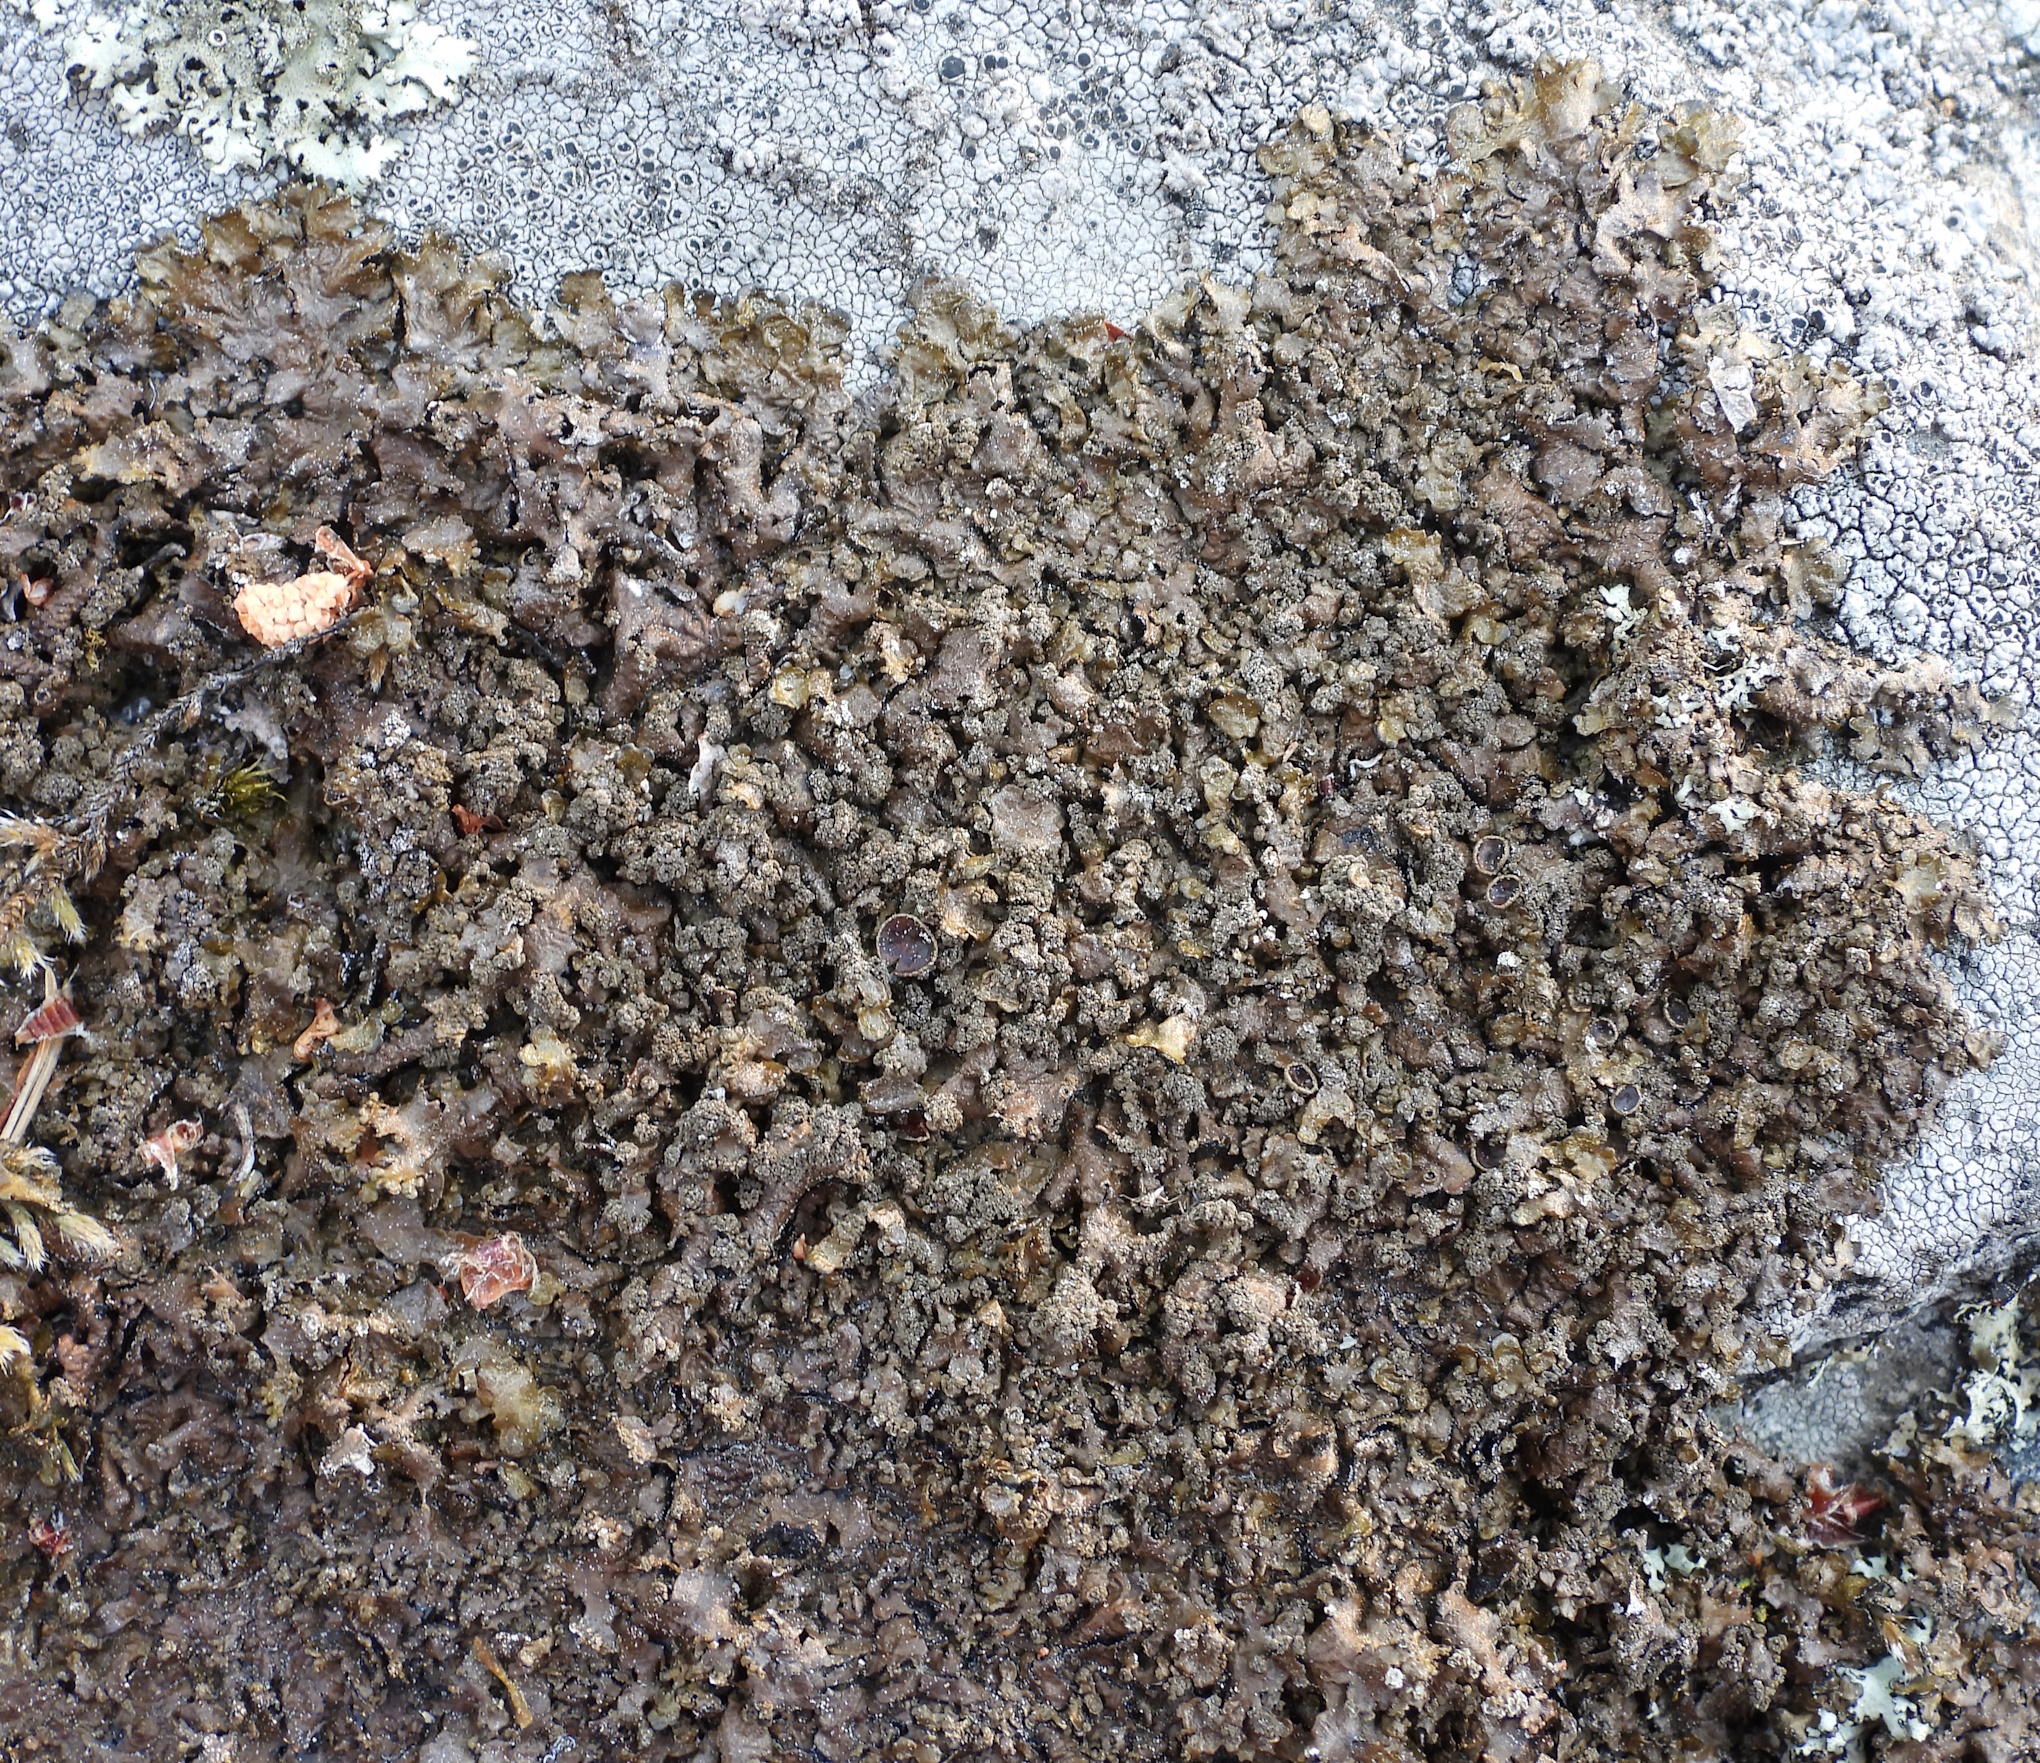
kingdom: Fungi
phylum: Ascomycota
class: Lecanoromycetes
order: Lecanorales
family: Parmeliaceae
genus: Xanthoparmelia
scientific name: Xanthoparmelia loxodes
